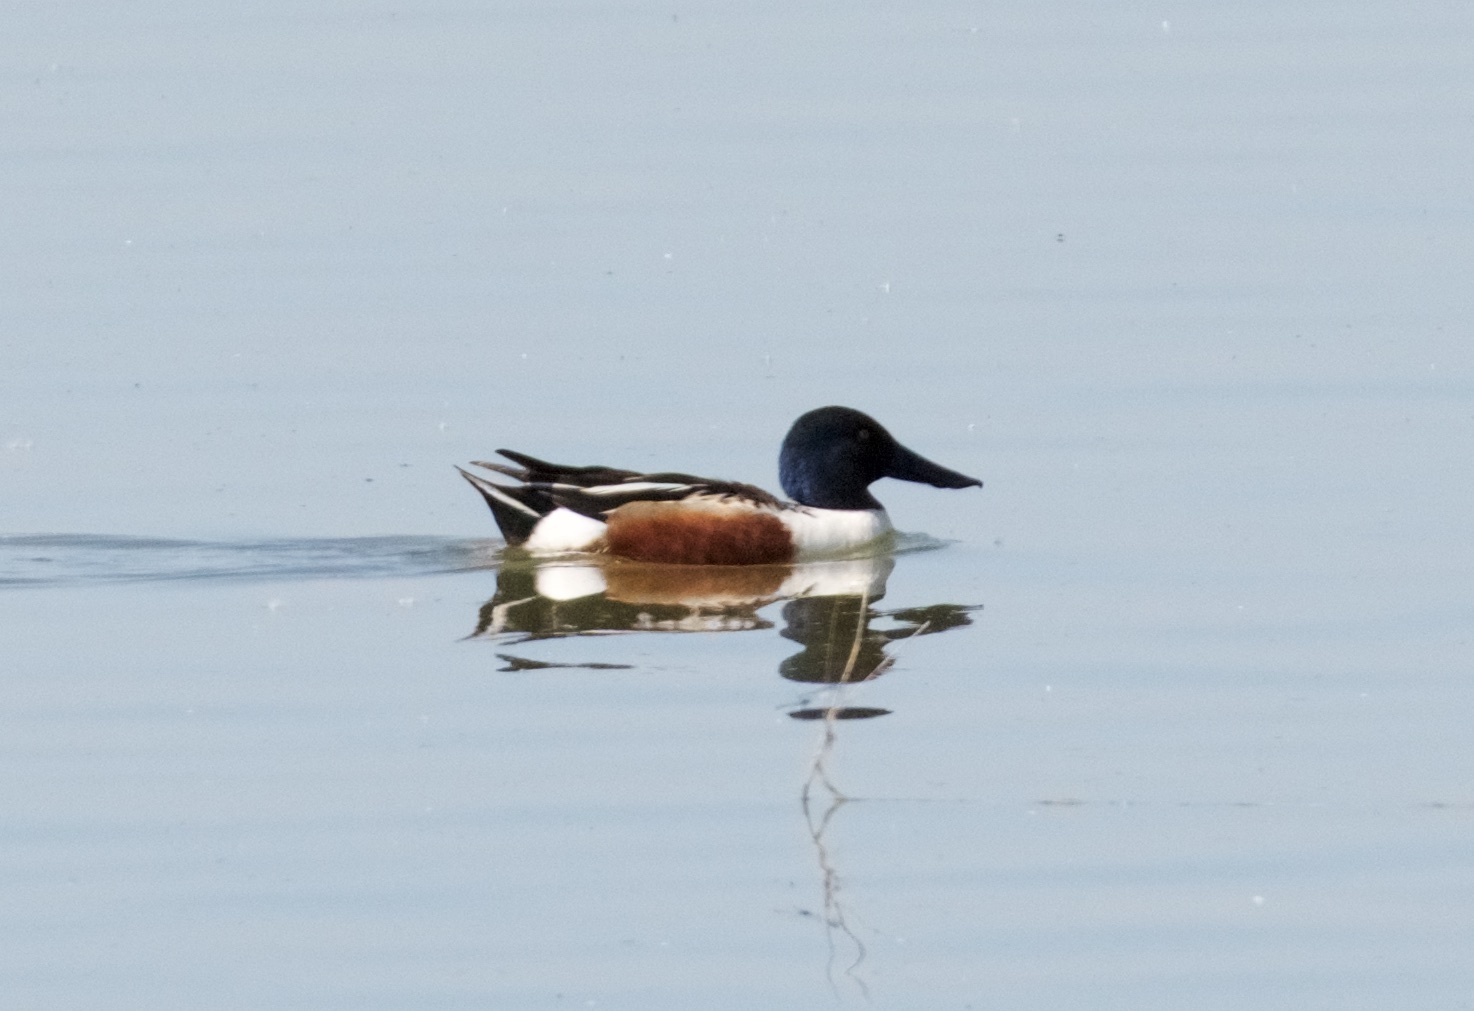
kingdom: Animalia
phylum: Chordata
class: Aves
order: Anseriformes
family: Anatidae
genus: Spatula
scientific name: Spatula clypeata
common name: Northern shoveler
